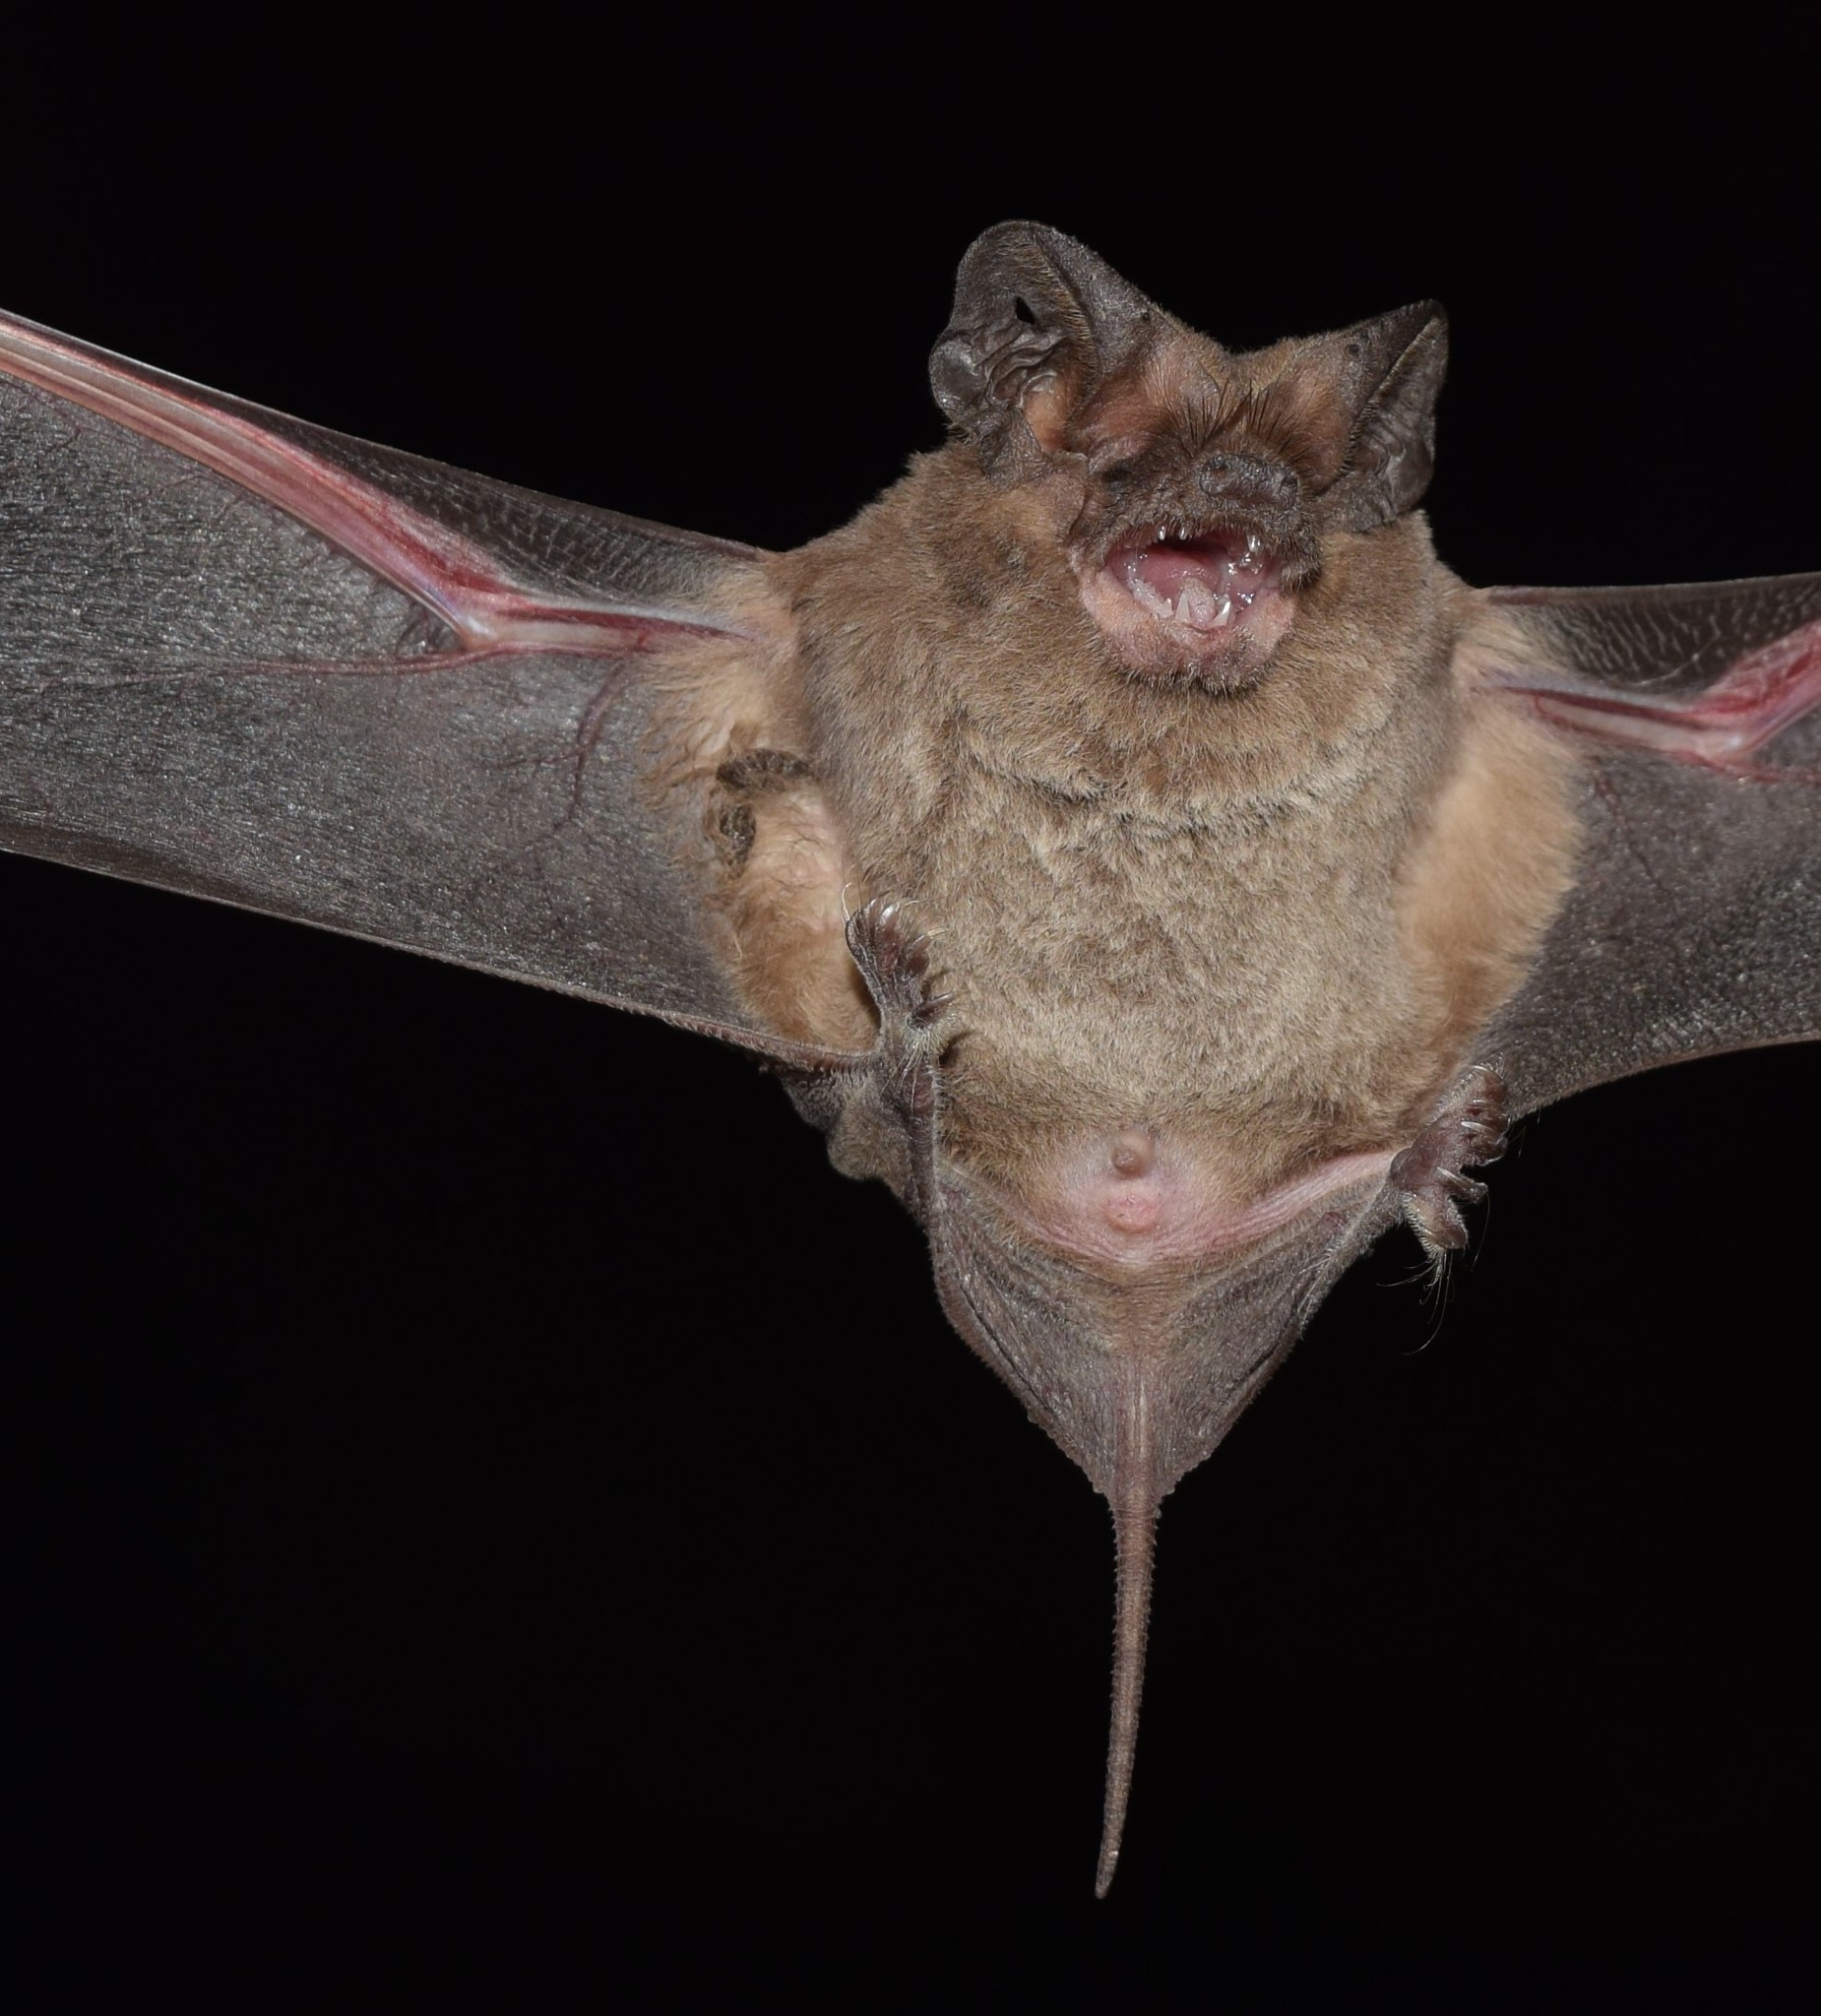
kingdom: Animalia
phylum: Chordata
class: Mammalia
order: Chiroptera
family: Molossidae
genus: Tadarida
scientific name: Tadarida brasiliensis
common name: Mexican free-tailed bat
